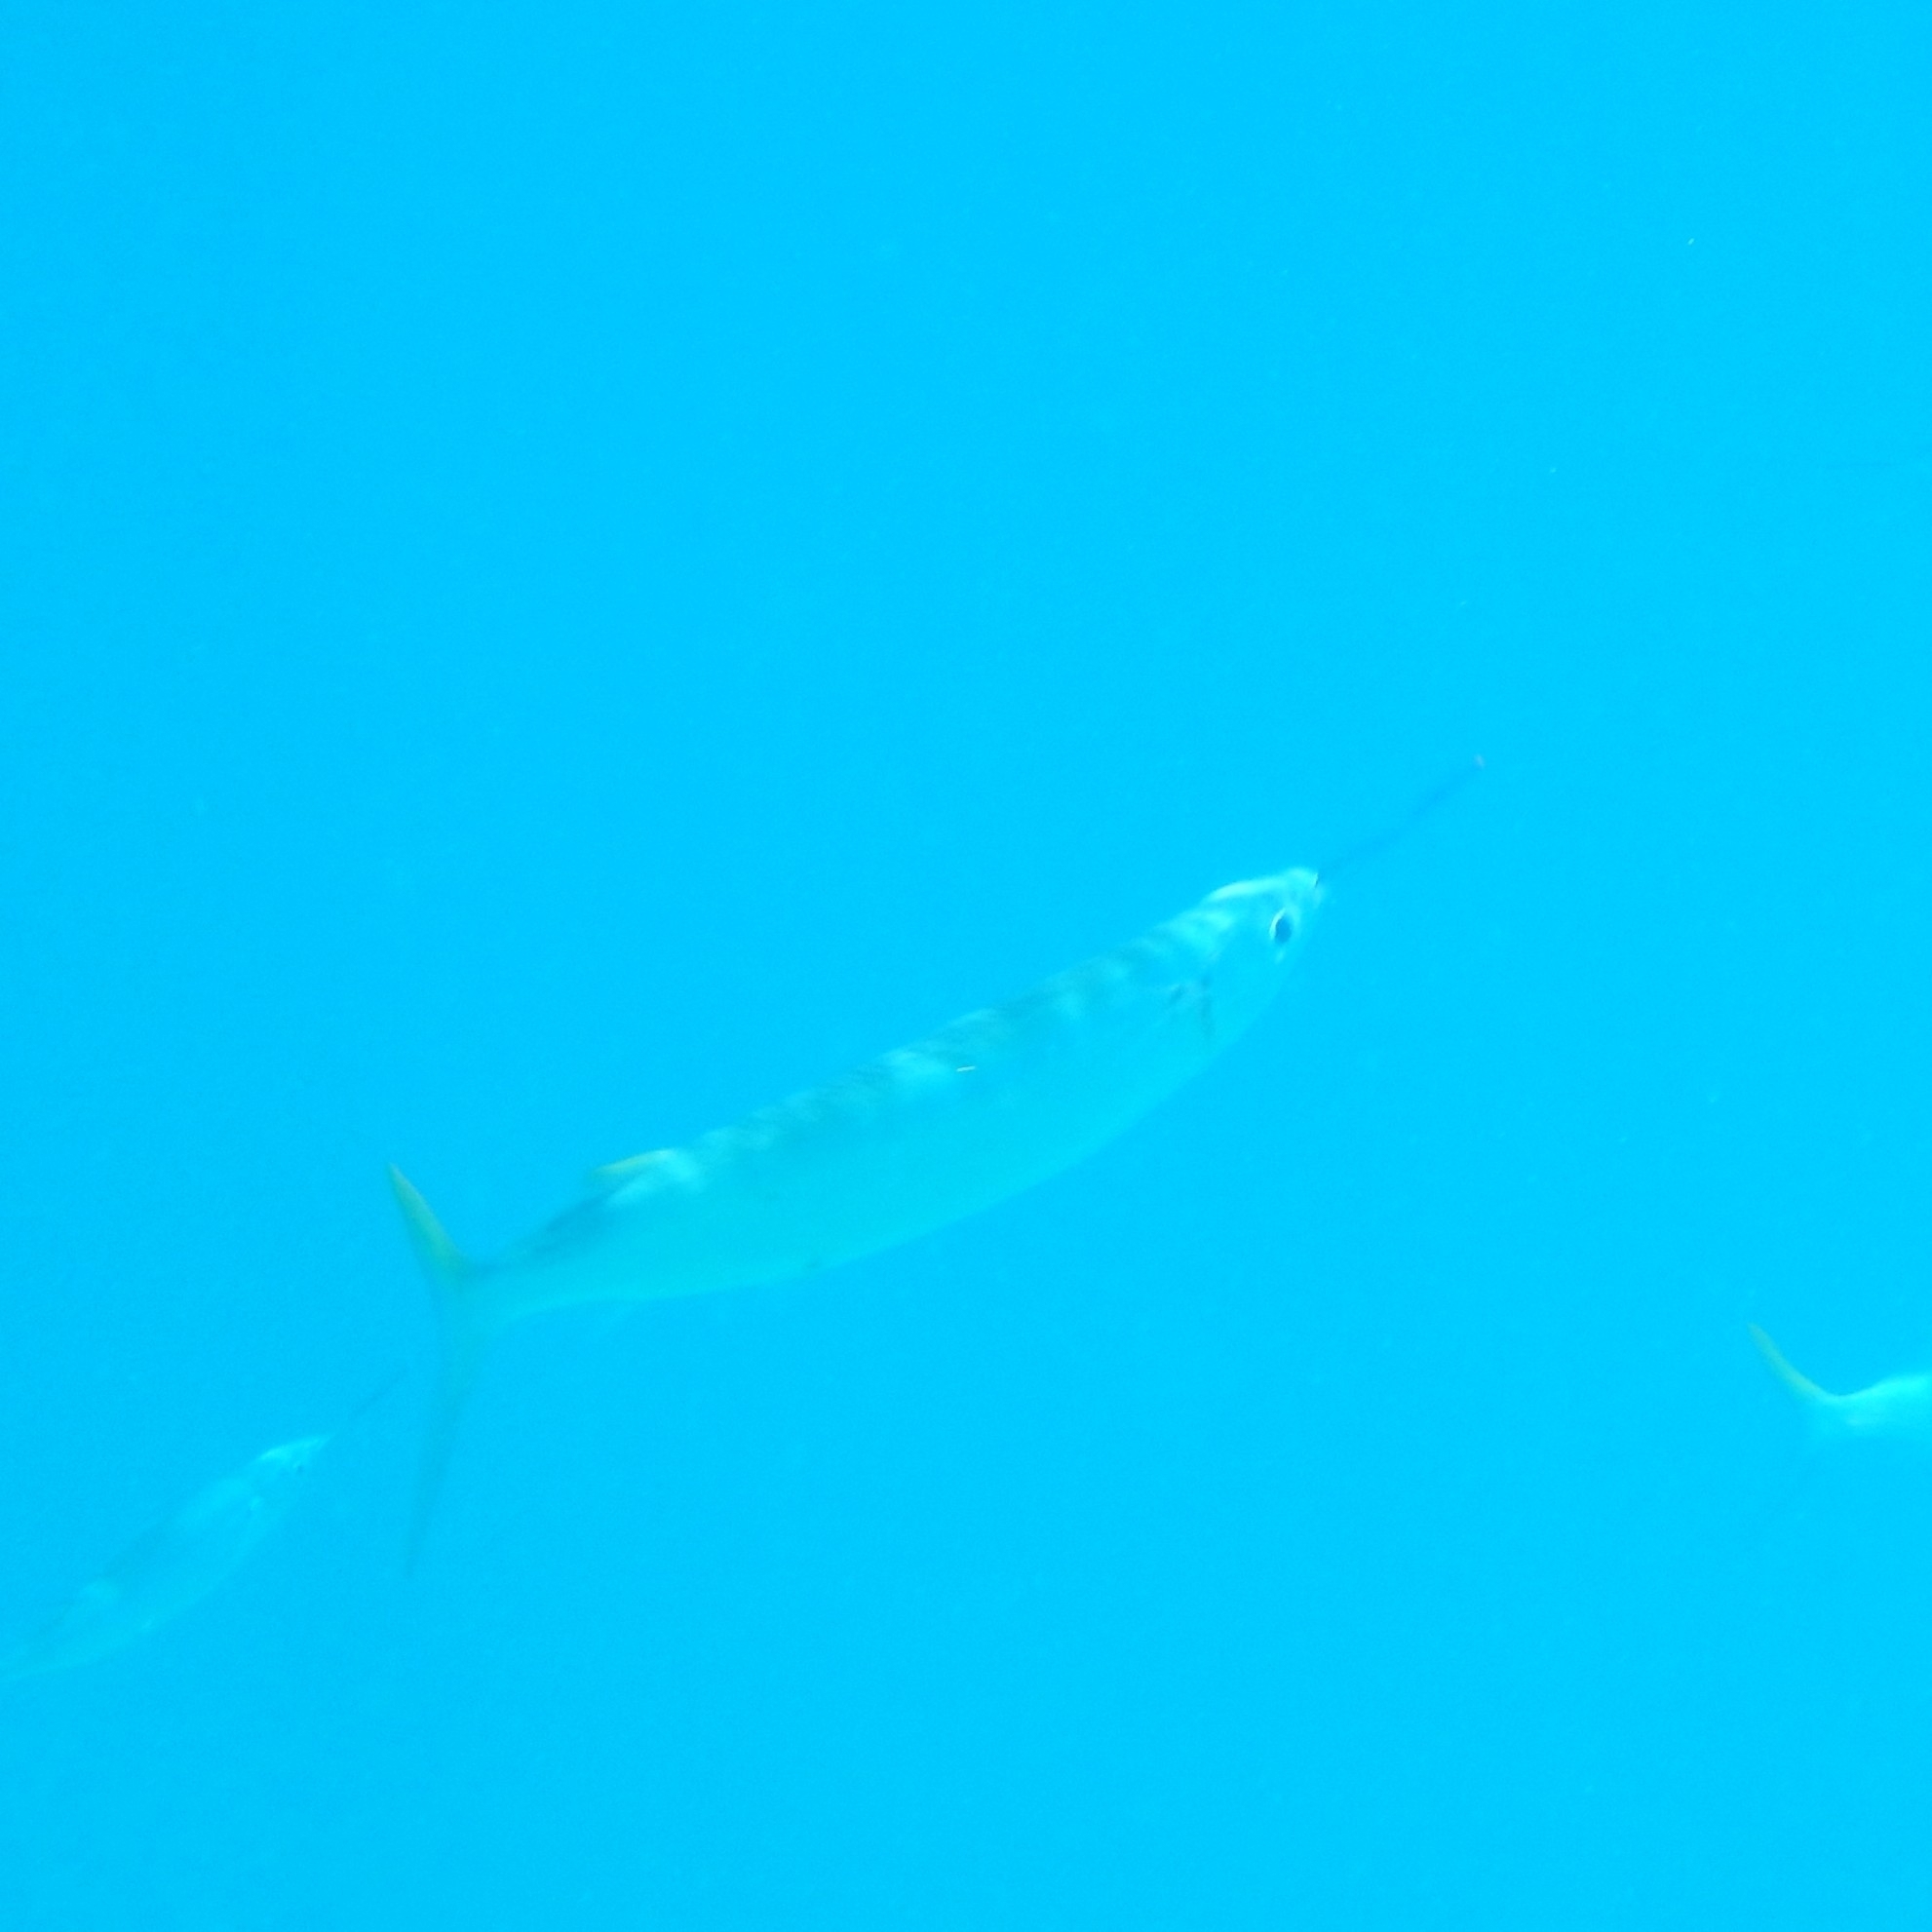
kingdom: Animalia
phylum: Chordata
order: Beloniformes
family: Hemiramphidae
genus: Hemiramphus
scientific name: Hemiramphus brasiliensis
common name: Ballyhoo
